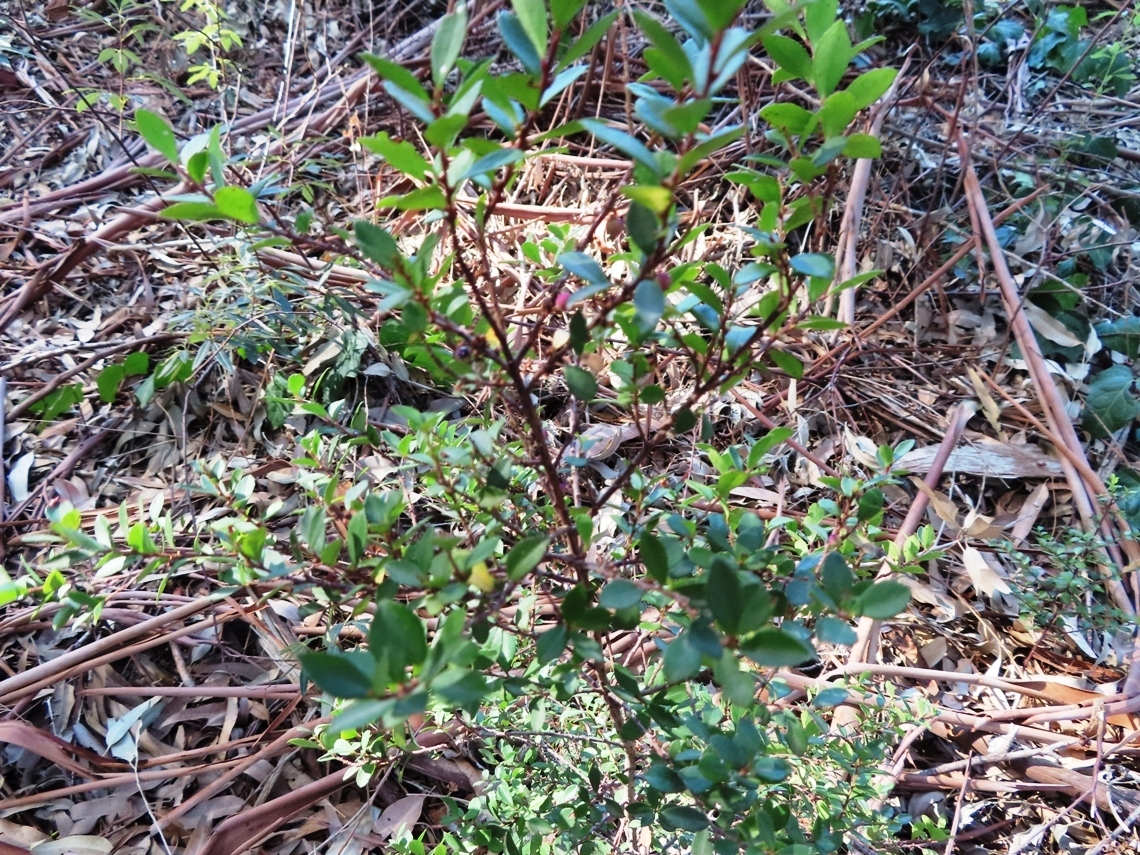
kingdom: Plantae
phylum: Tracheophyta
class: Magnoliopsida
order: Ericales
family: Primulaceae
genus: Myrsine
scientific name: Myrsine africana
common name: African-boxwood
